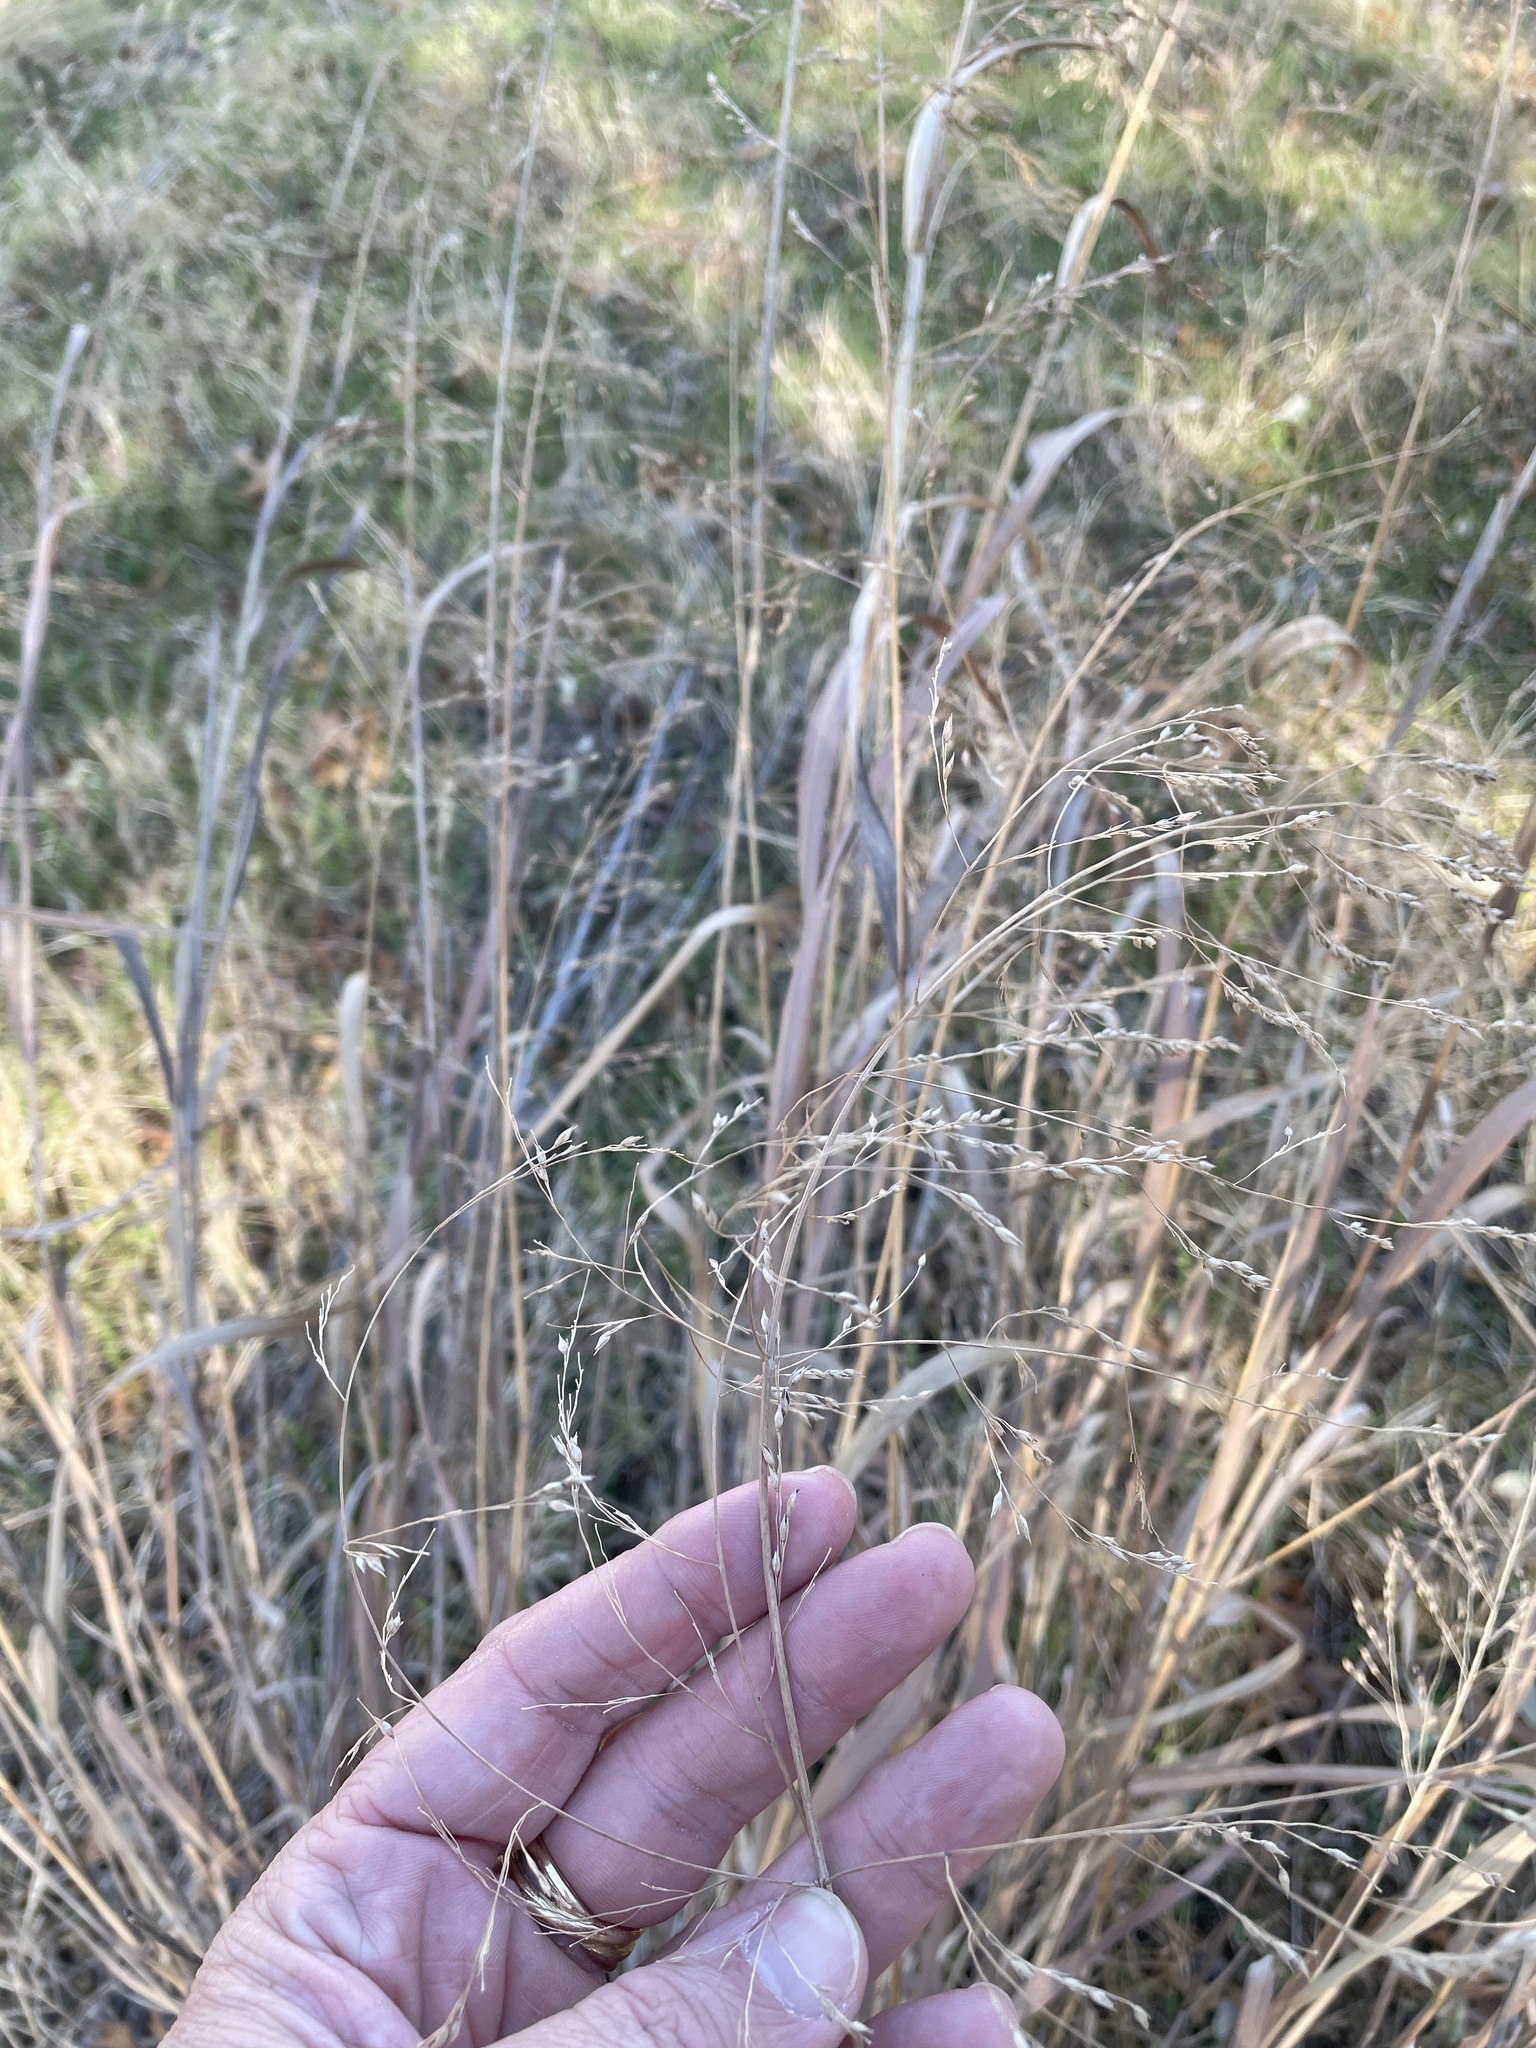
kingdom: Plantae
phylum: Tracheophyta
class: Liliopsida
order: Poales
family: Poaceae
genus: Panicum
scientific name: Panicum virgatum
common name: Switchgrass
